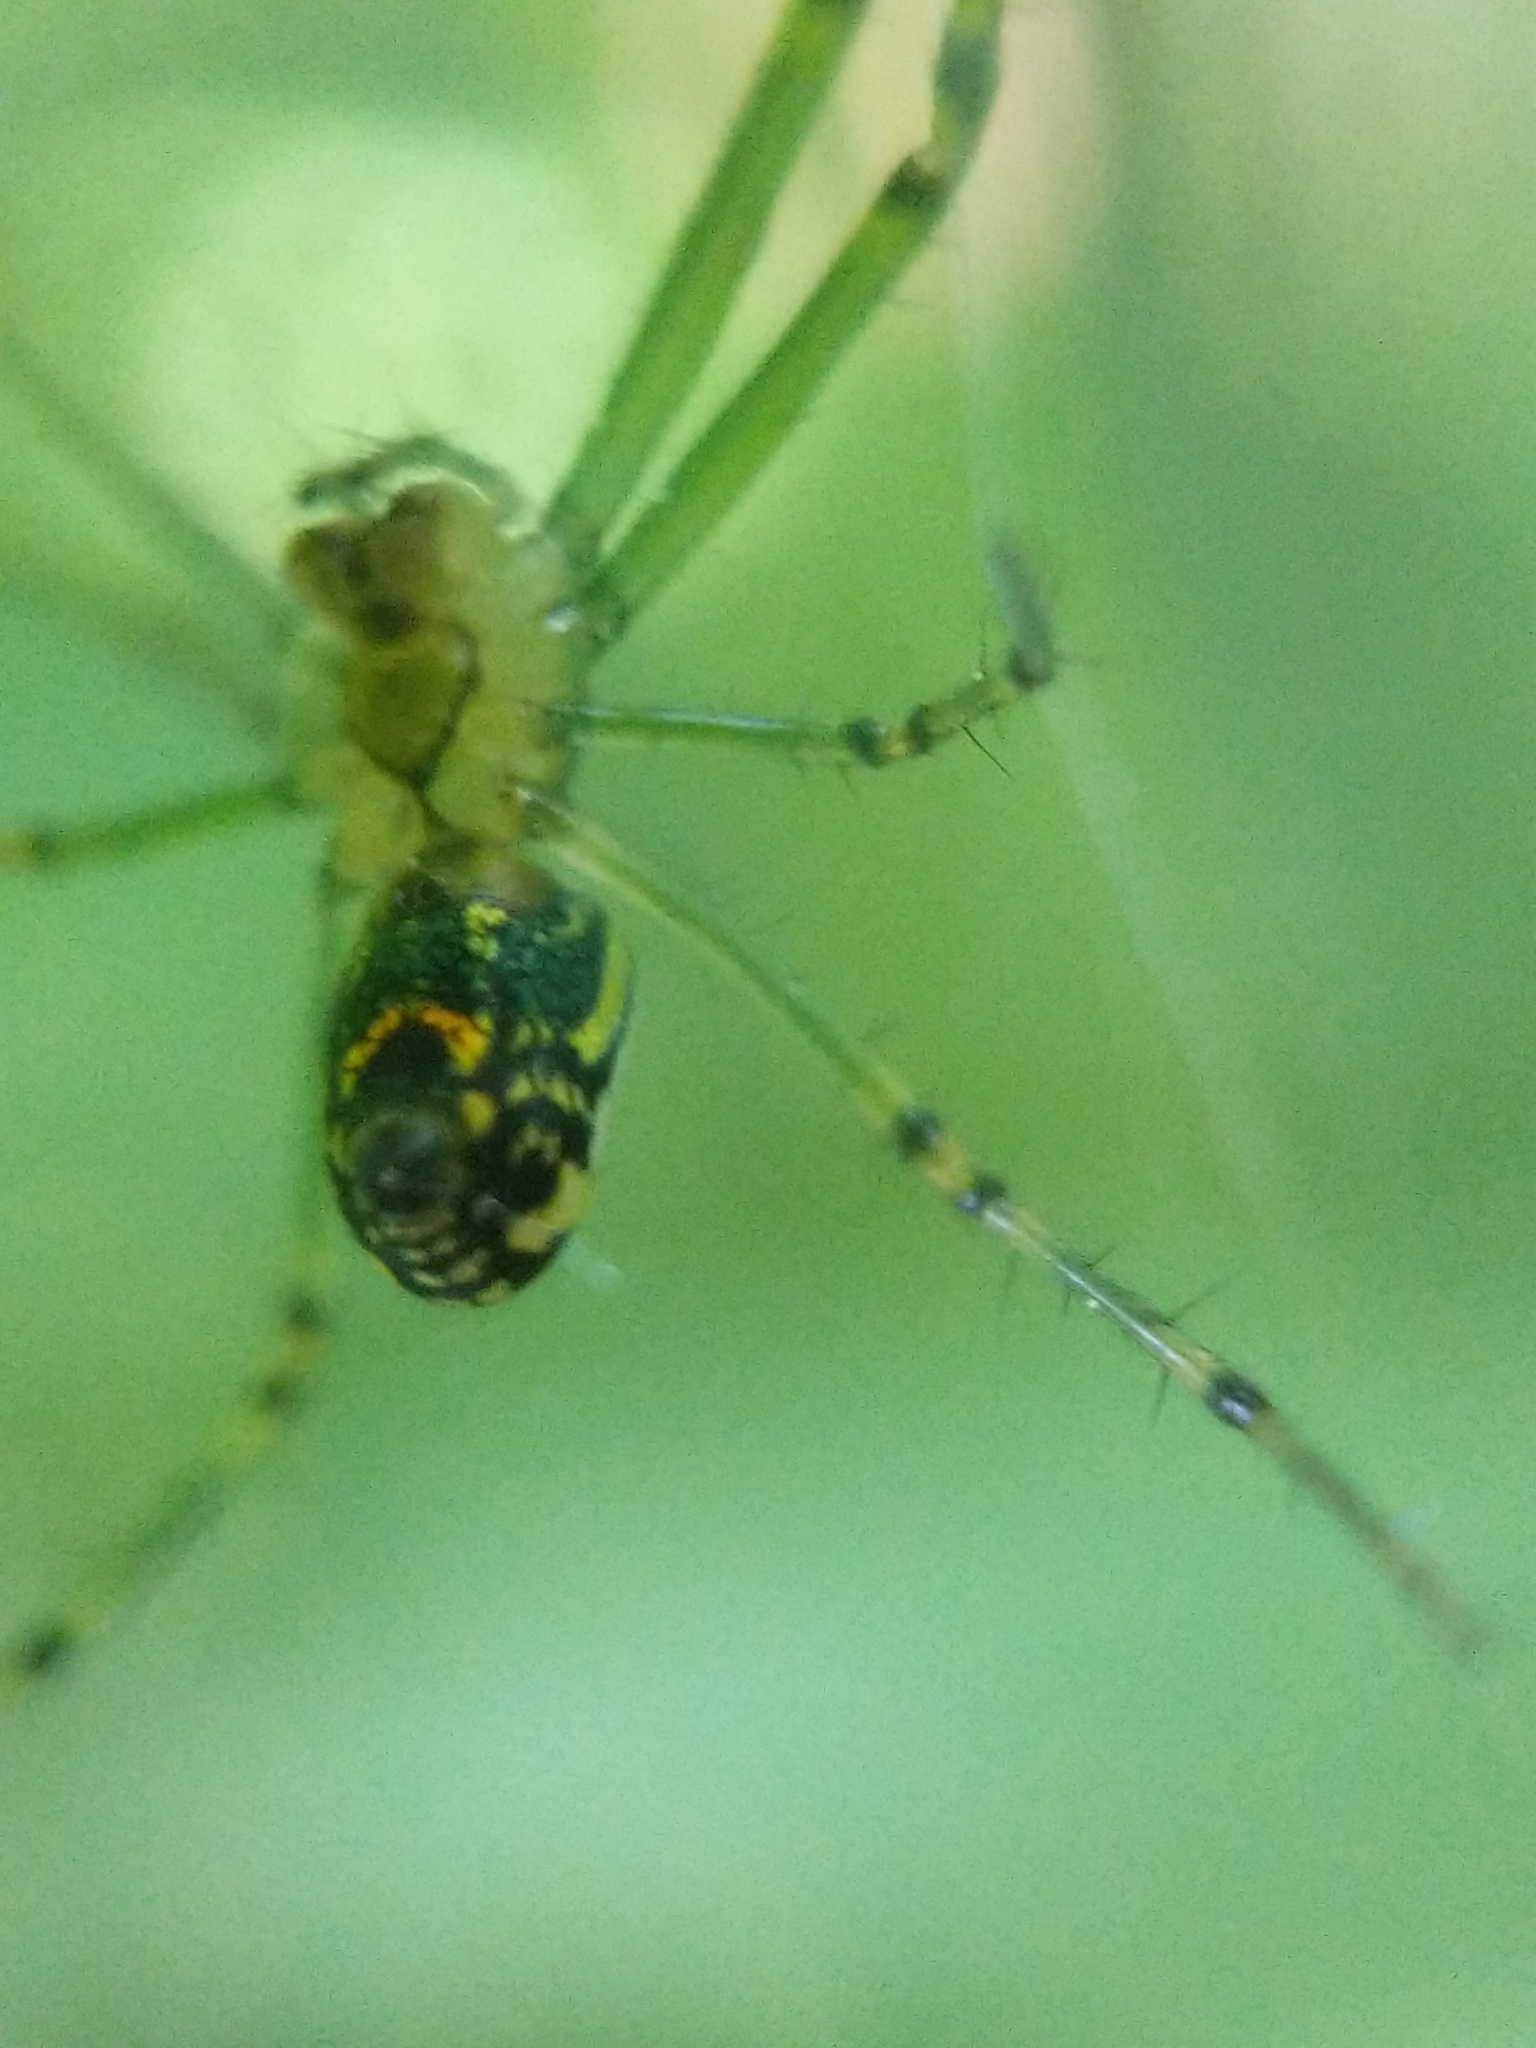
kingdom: Animalia
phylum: Arthropoda
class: Arachnida
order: Araneae
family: Tetragnathidae
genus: Leucauge
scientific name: Leucauge venusta
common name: Longjawed orb weavers
